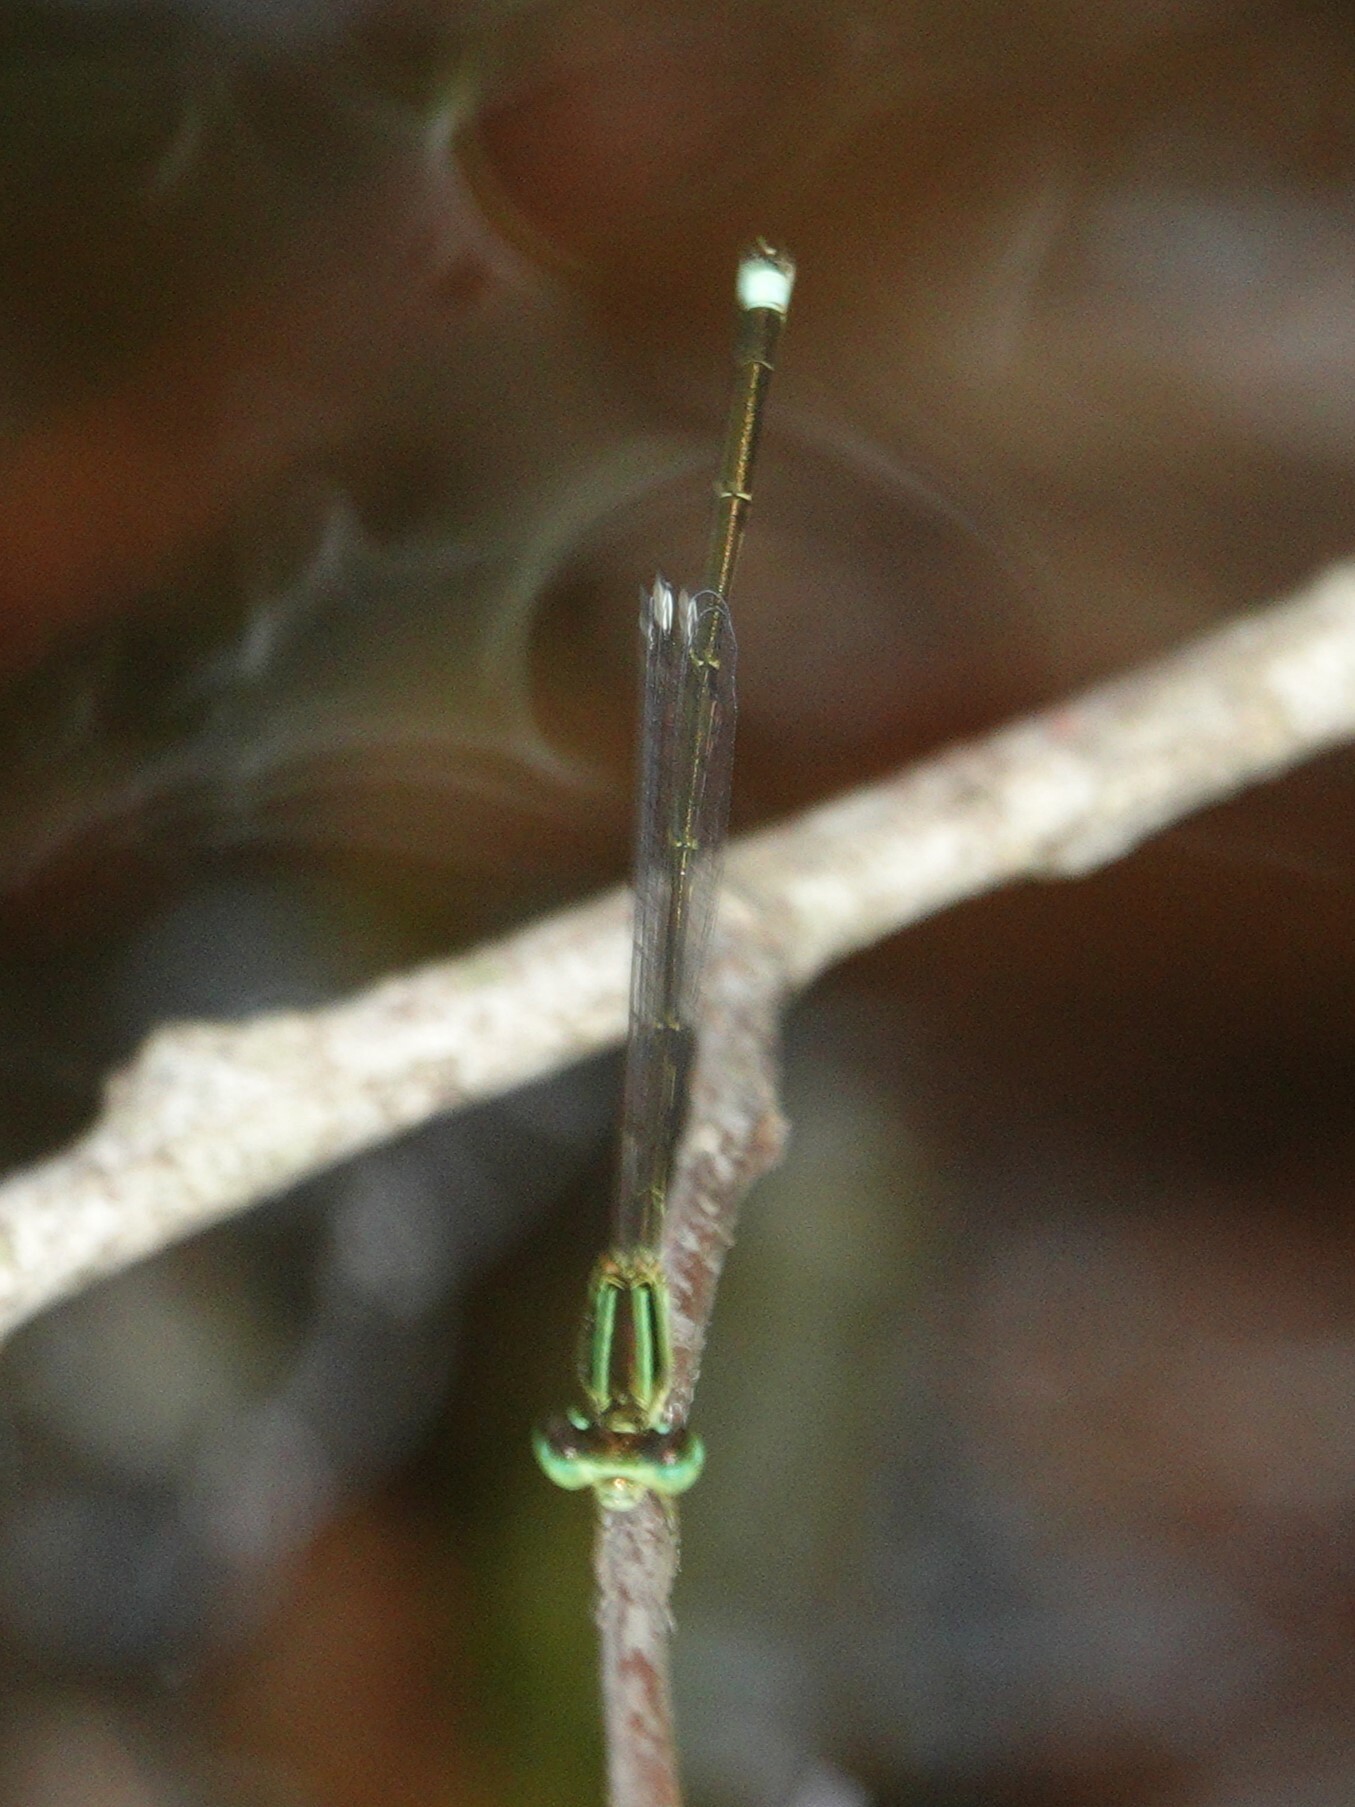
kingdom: Animalia
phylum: Arthropoda
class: Insecta
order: Odonata
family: Coenagrionidae
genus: Ischnura
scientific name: Ischnura prognata
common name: Furtive forktail
